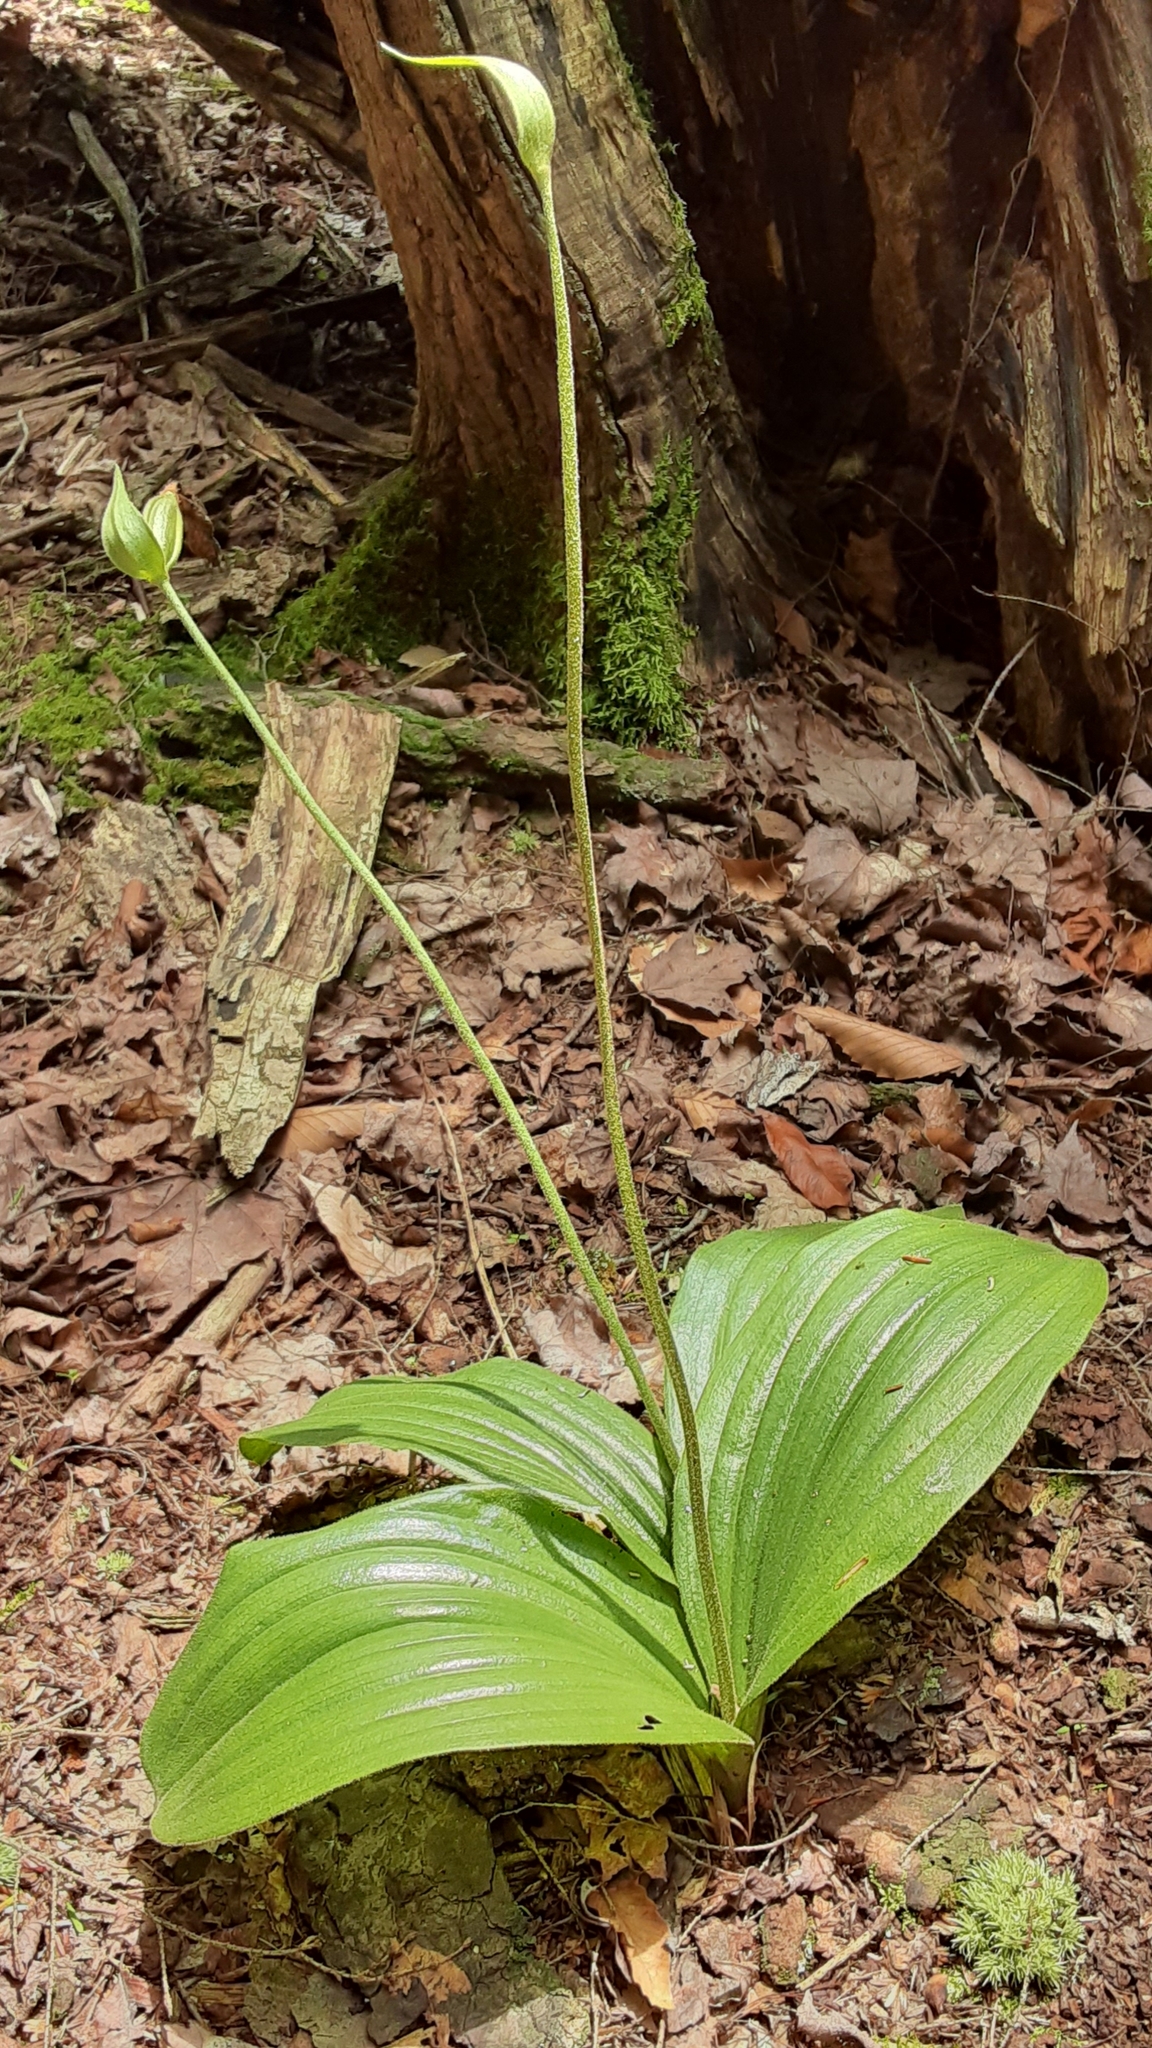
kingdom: Plantae
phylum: Tracheophyta
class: Liliopsida
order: Asparagales
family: Orchidaceae
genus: Cypripedium
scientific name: Cypripedium acaule
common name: Pink lady's-slipper
